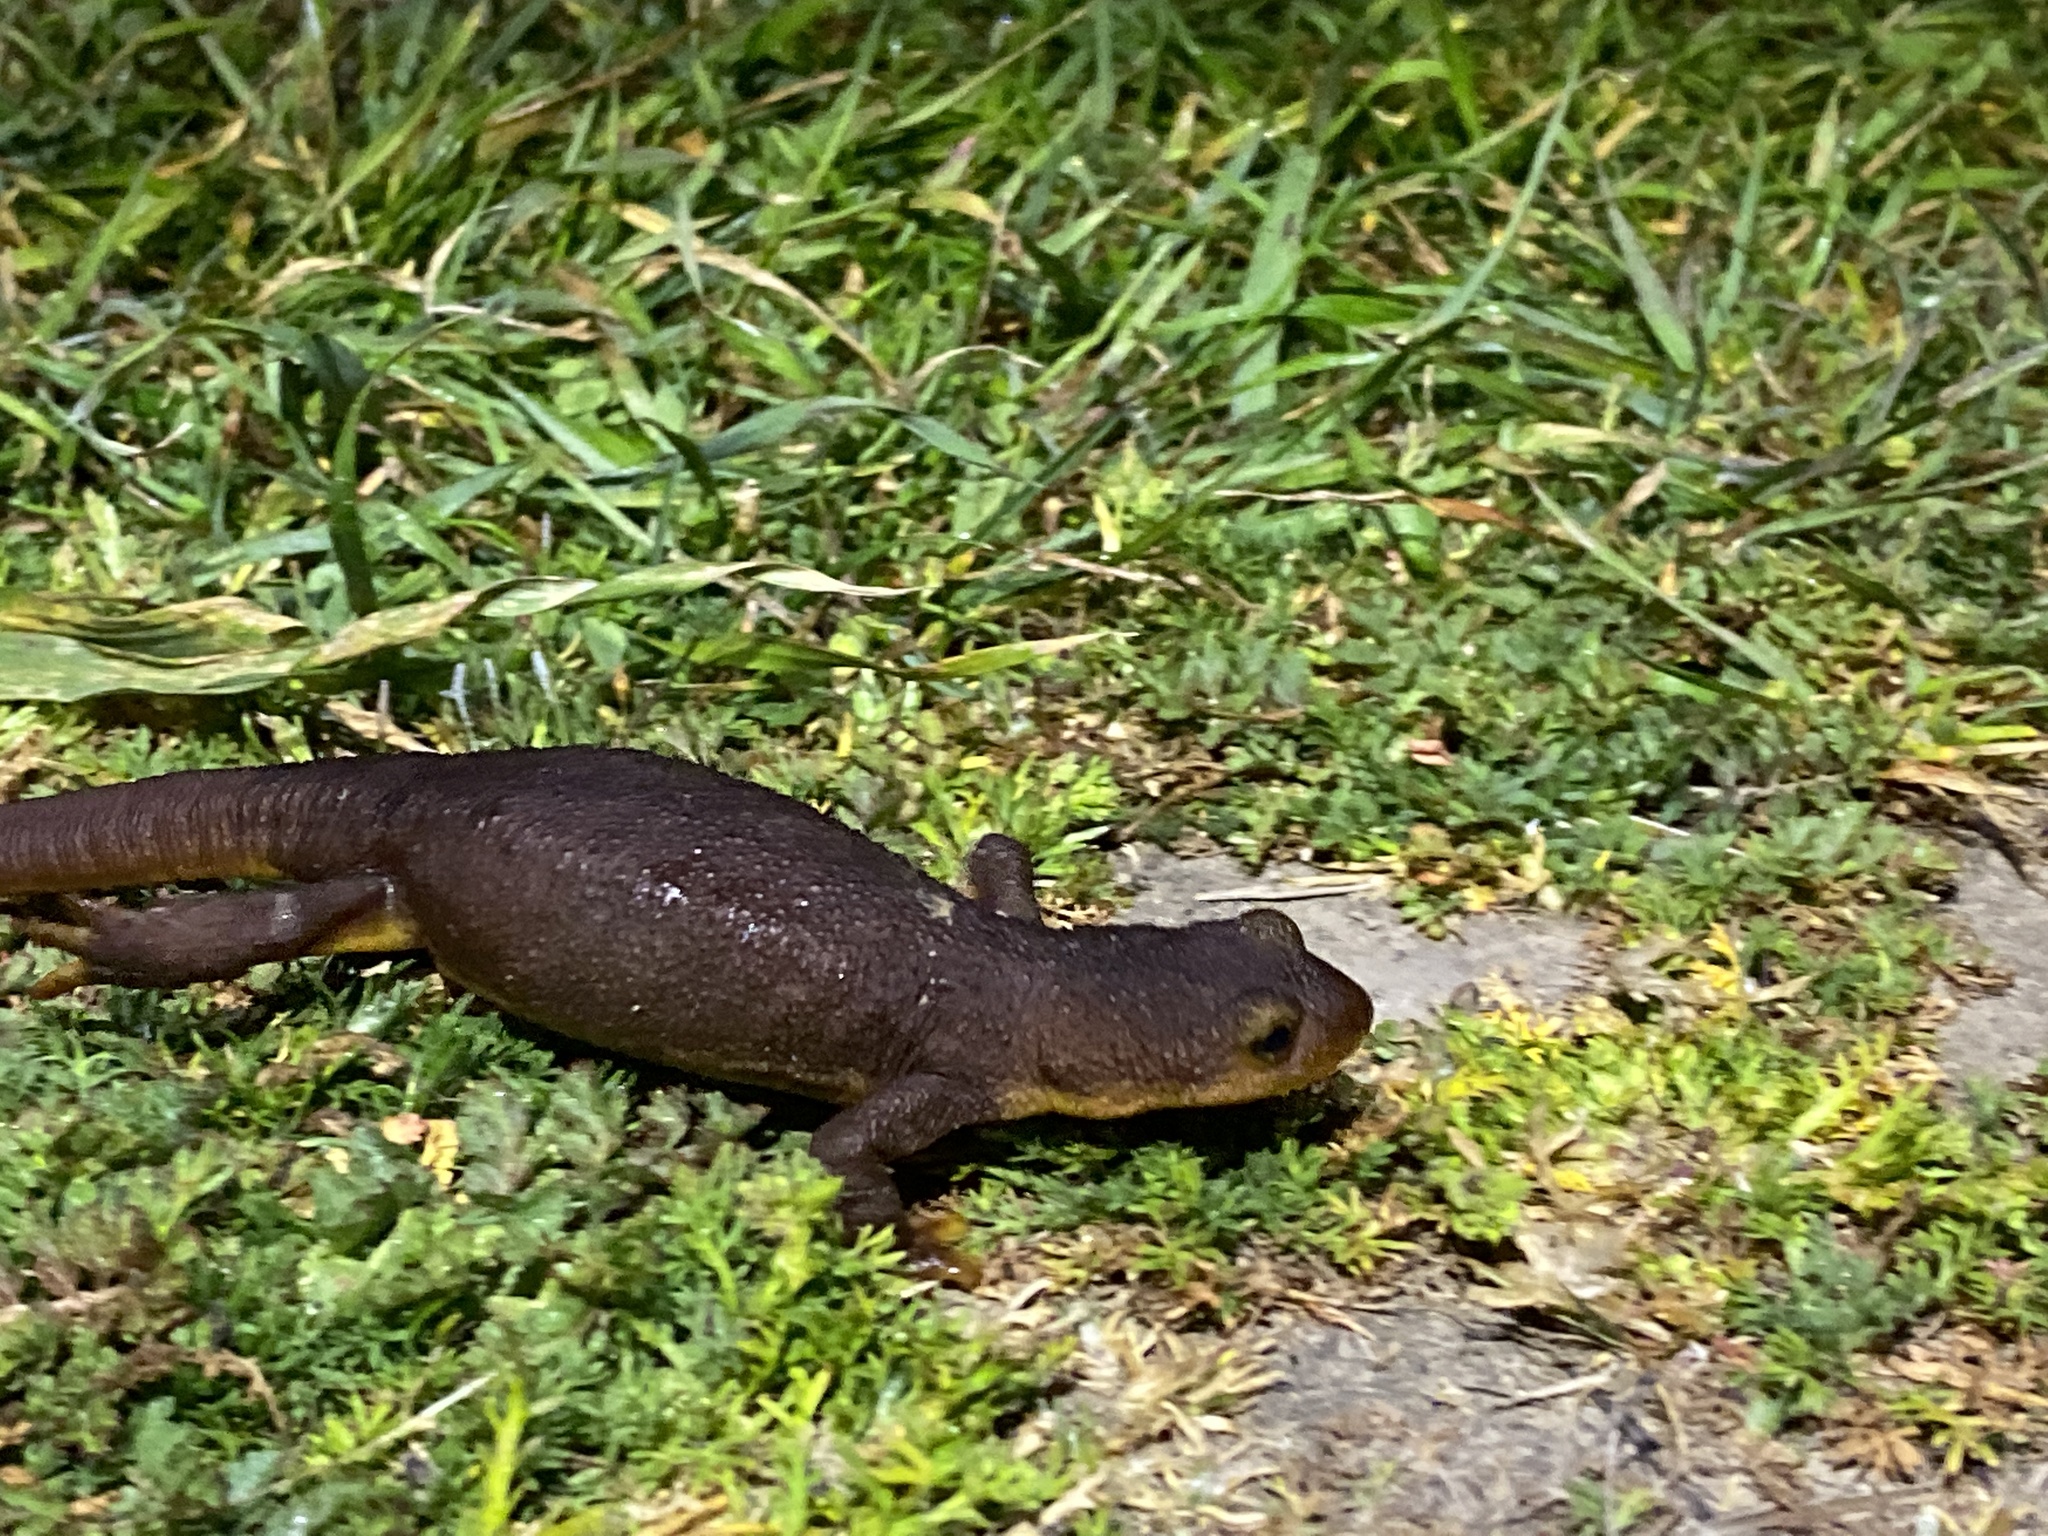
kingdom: Animalia
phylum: Chordata
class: Amphibia
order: Caudata
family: Salamandridae
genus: Taricha
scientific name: Taricha torosa
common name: California newt
